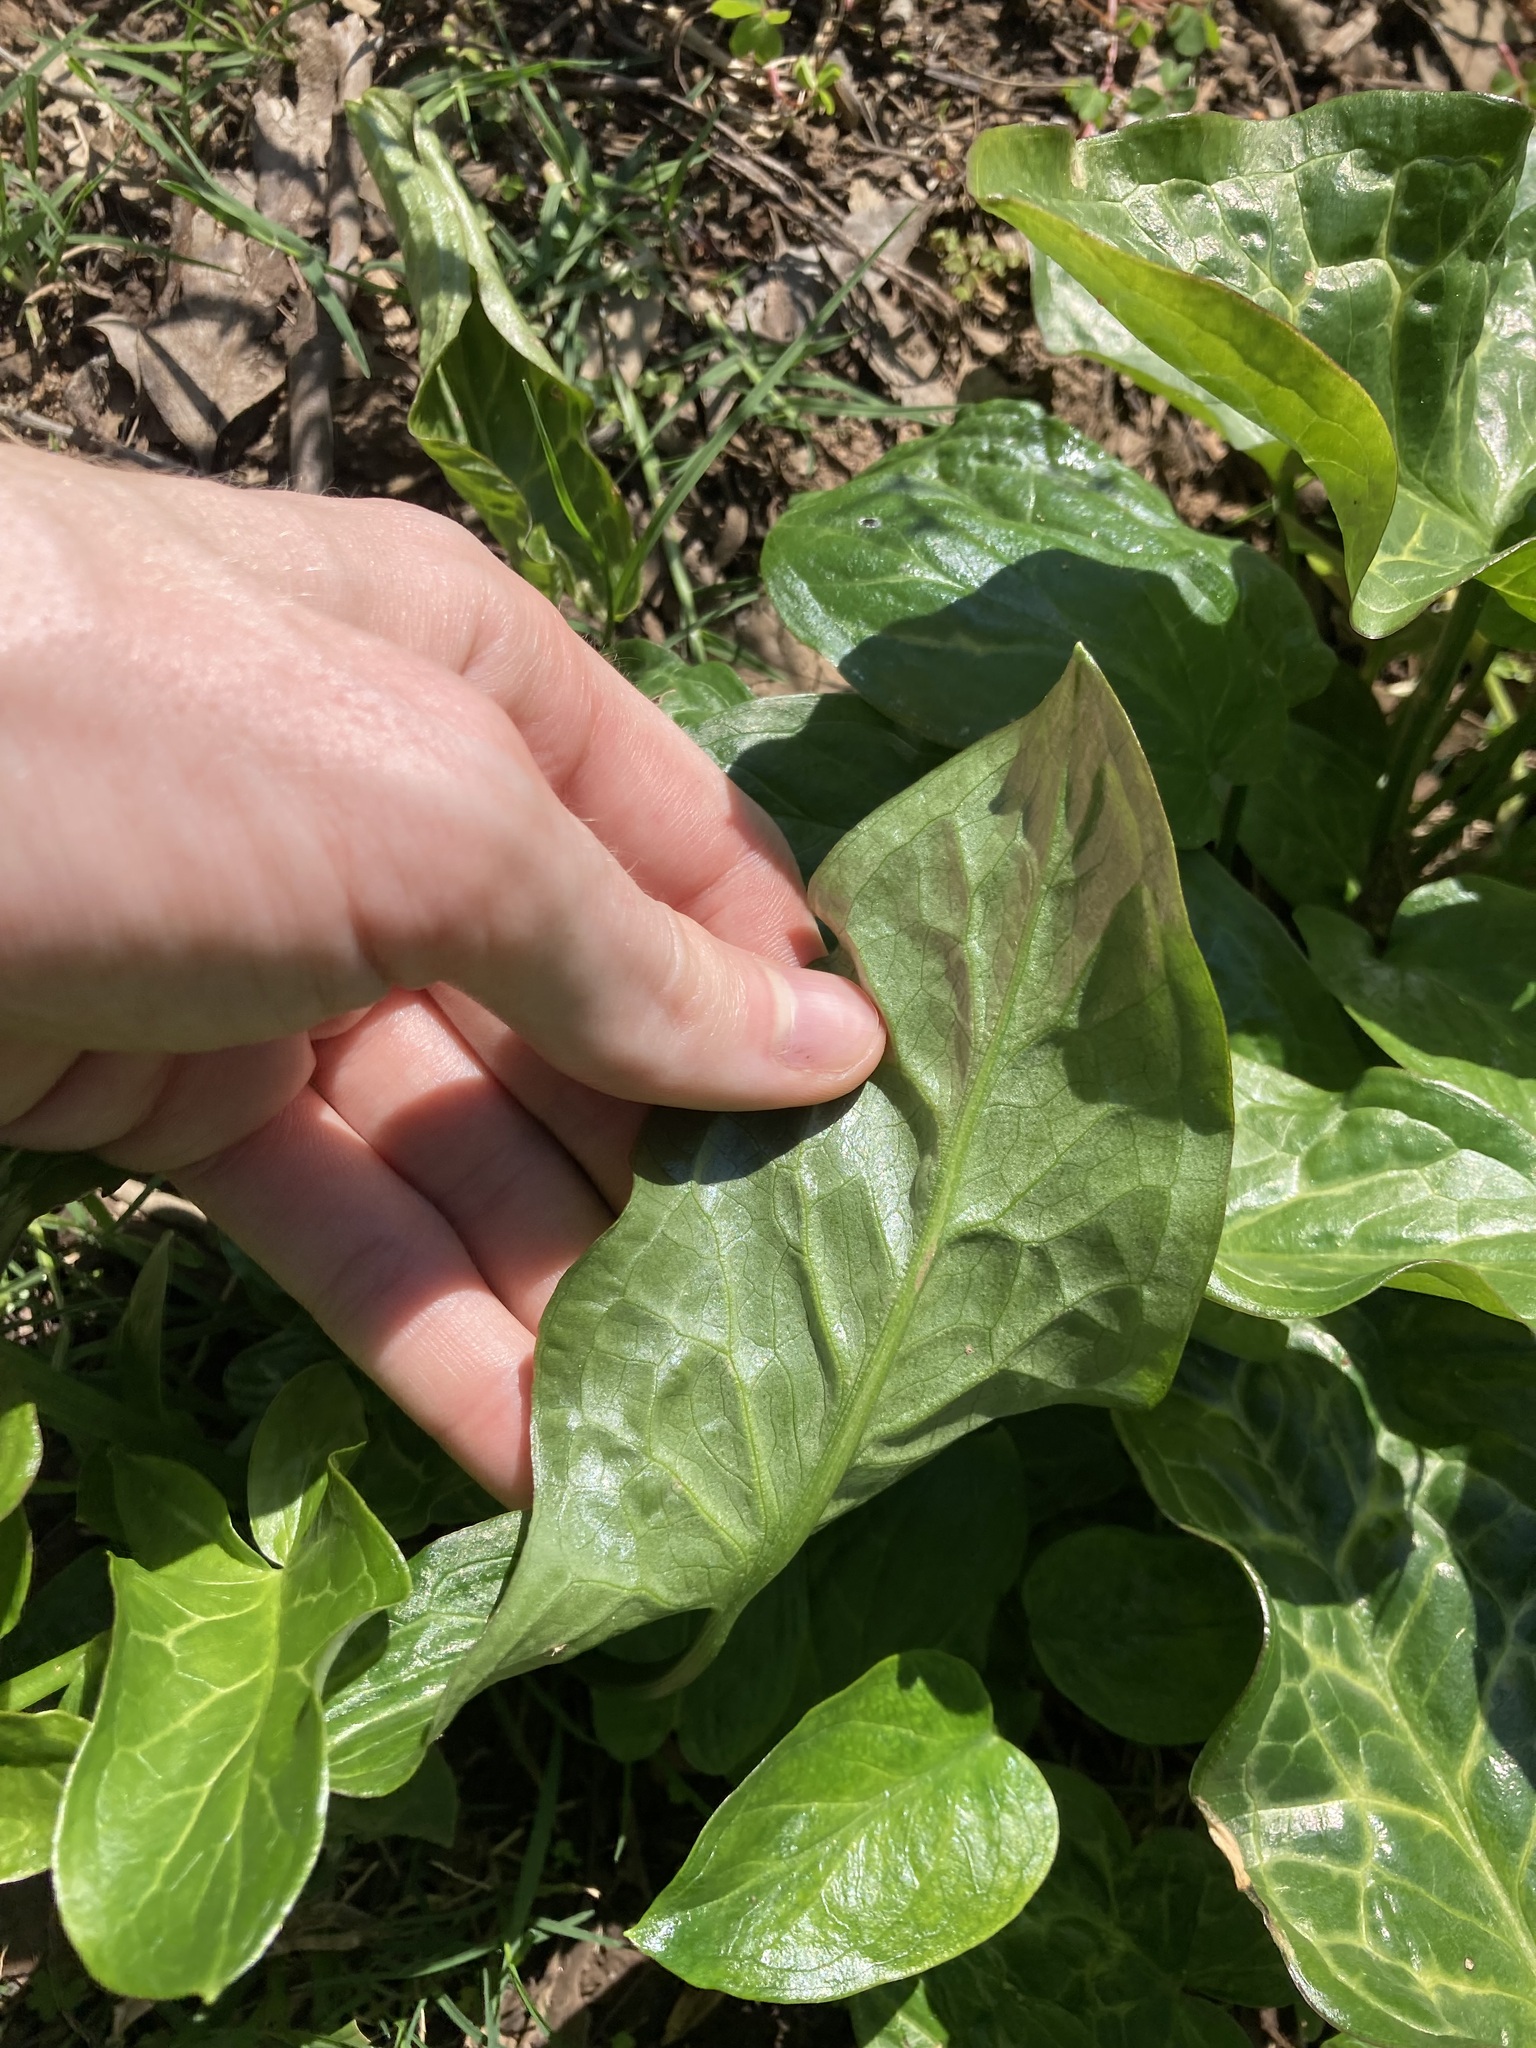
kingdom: Plantae
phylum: Tracheophyta
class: Liliopsida
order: Alismatales
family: Araceae
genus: Arum
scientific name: Arum italicum
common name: Italian lords-and-ladies
